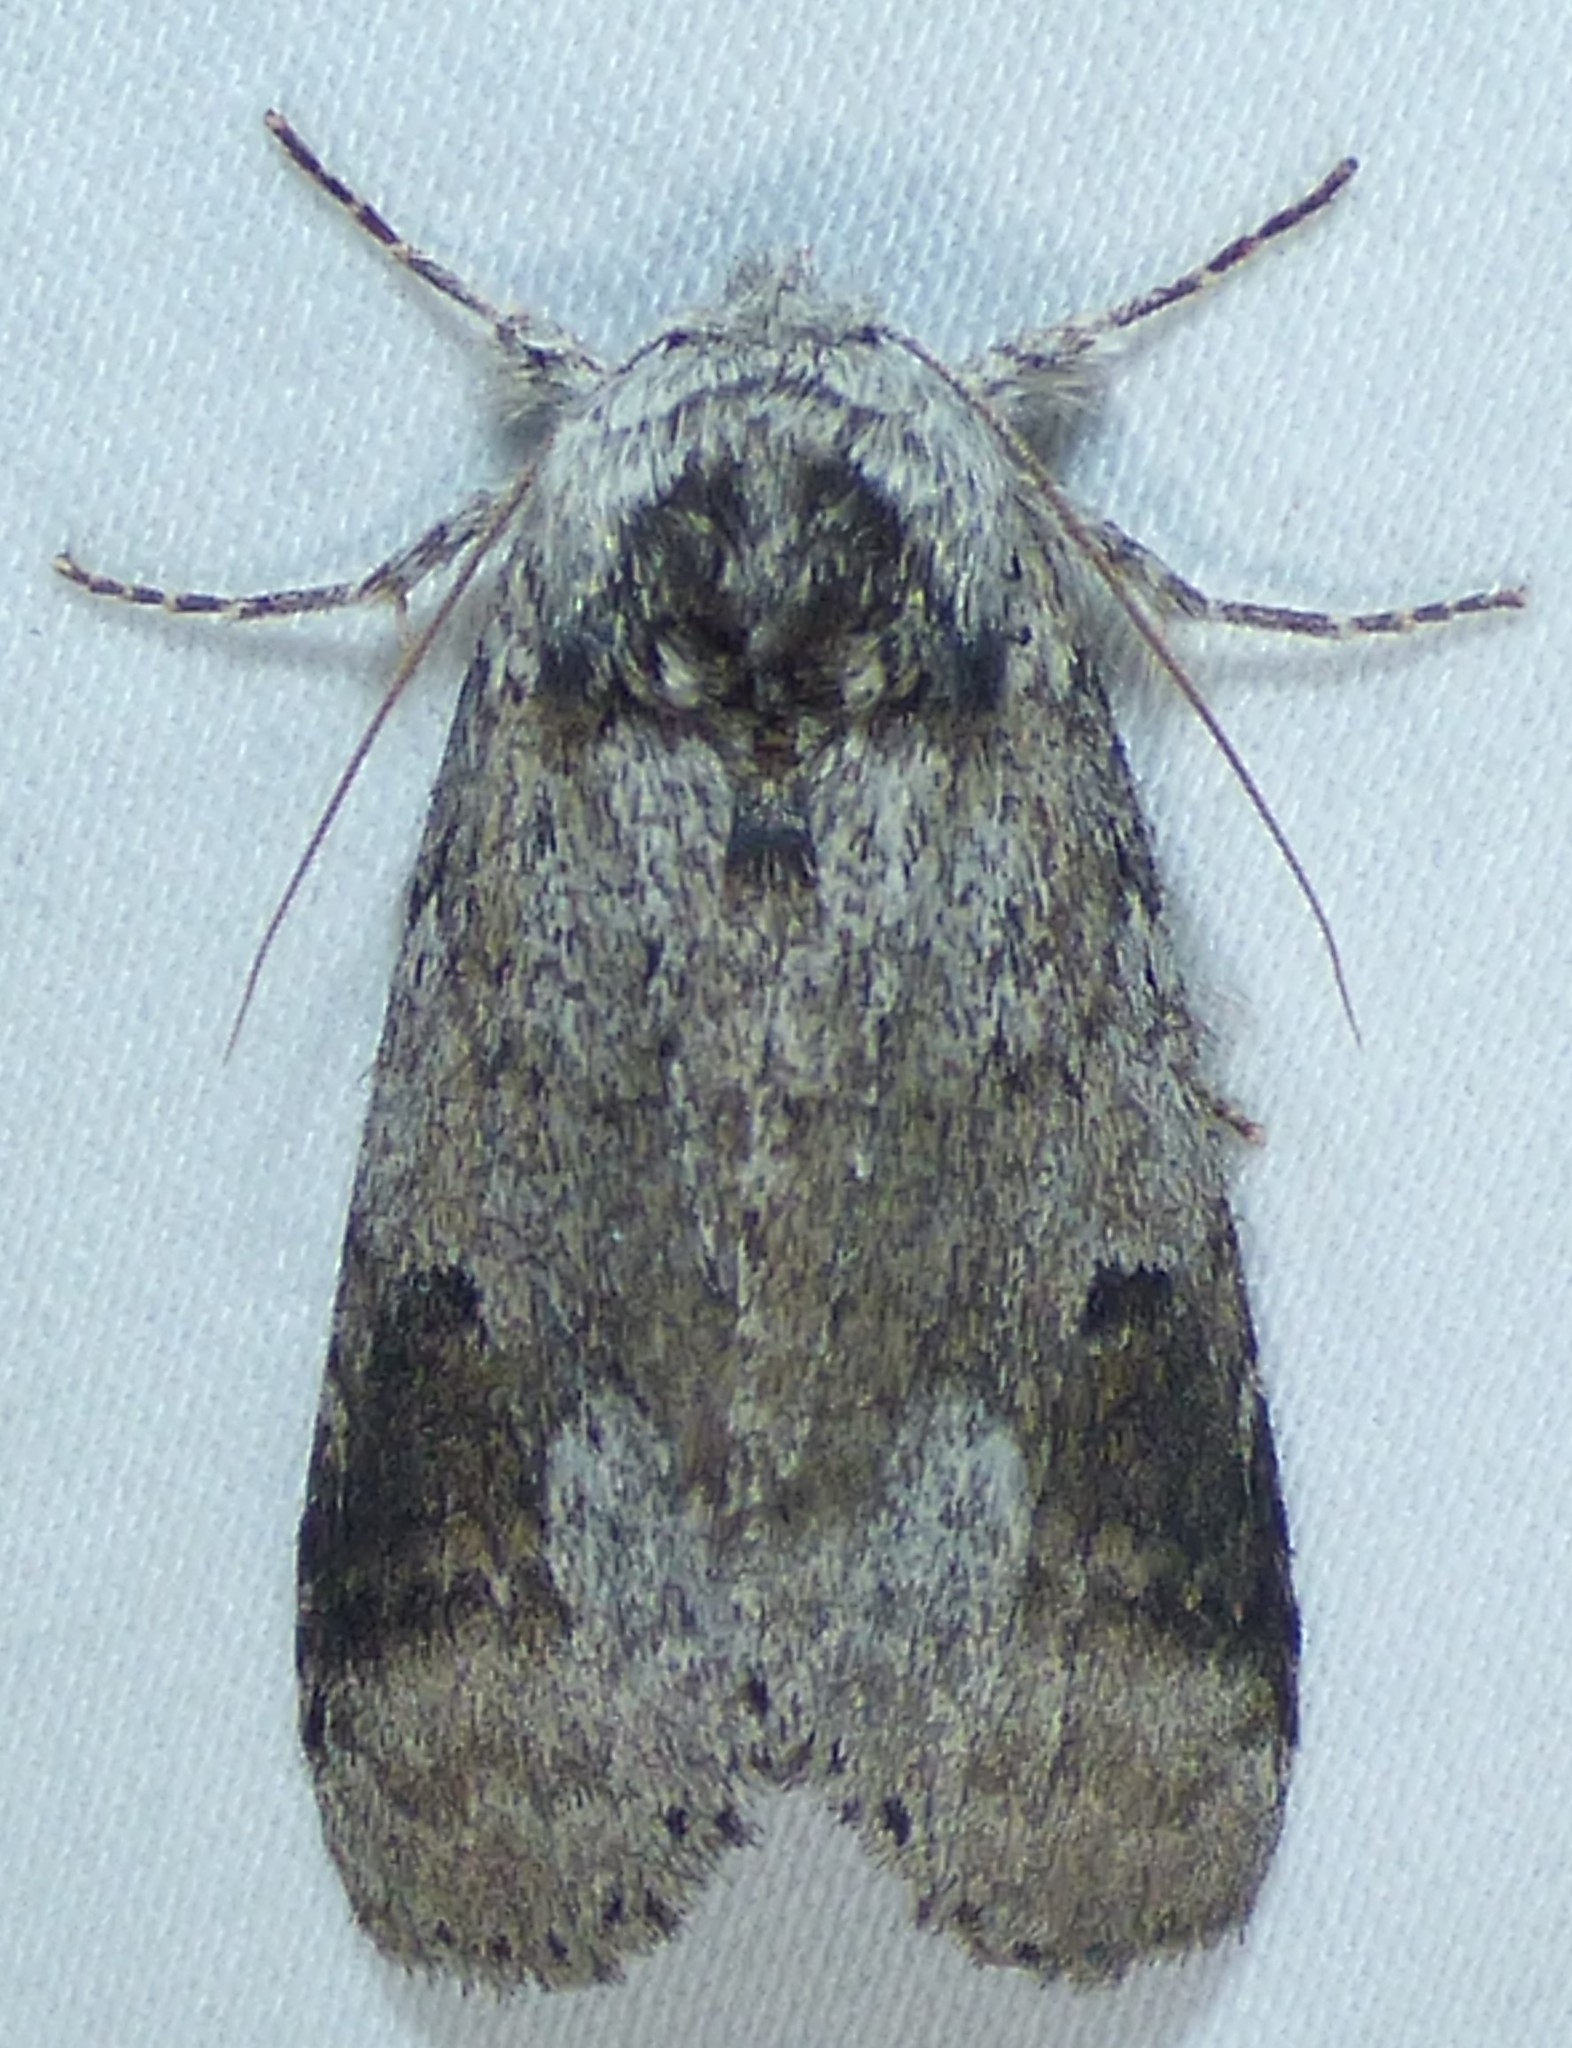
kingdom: Animalia
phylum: Arthropoda
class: Insecta
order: Lepidoptera
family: Notodontidae
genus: Lochmaeus
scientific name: Lochmaeus manteo
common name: Variable oakleaf caterpillar moth
